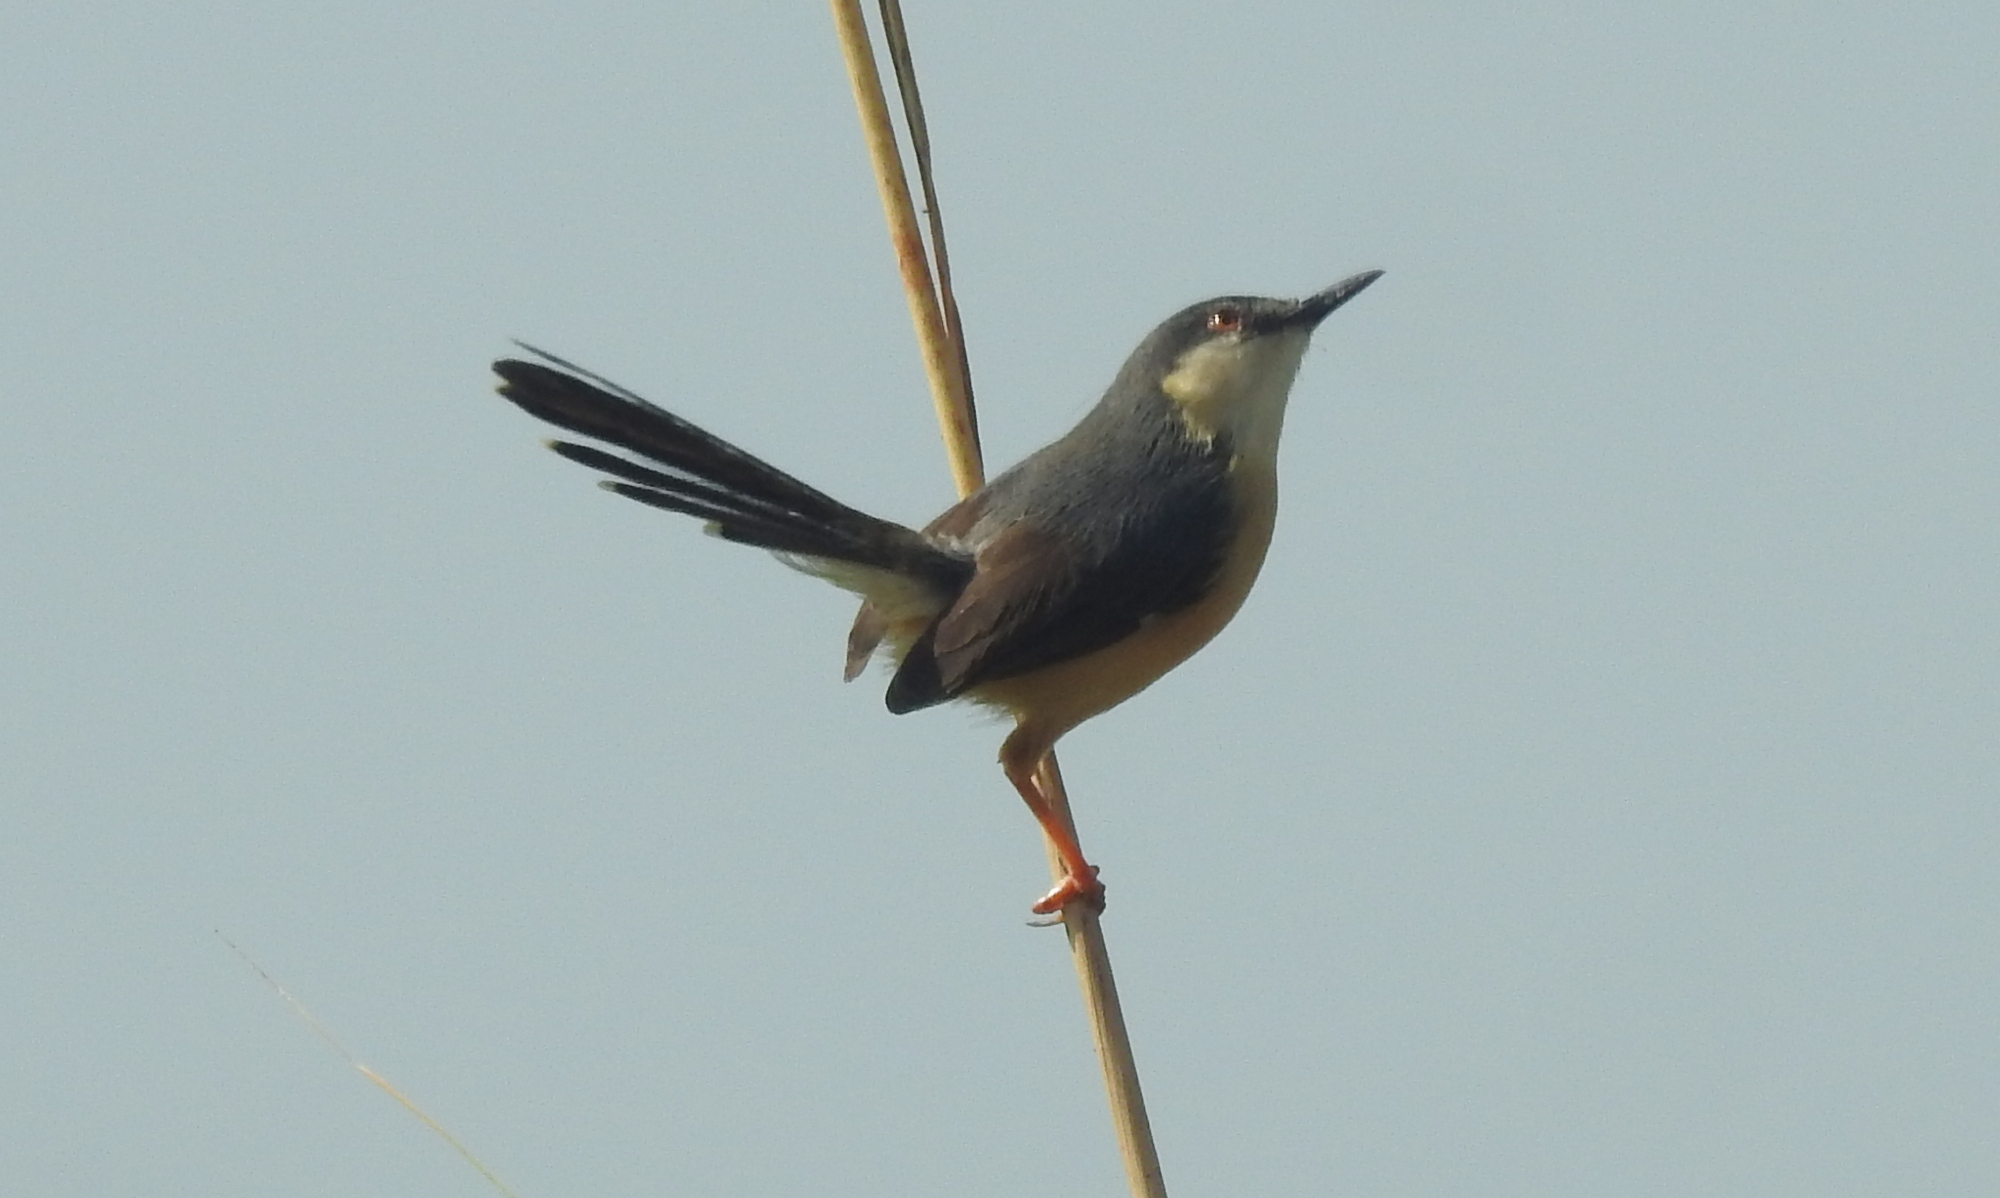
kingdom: Animalia
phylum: Chordata
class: Aves
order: Passeriformes
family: Cisticolidae
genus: Prinia
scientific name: Prinia socialis
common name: Ashy prinia
